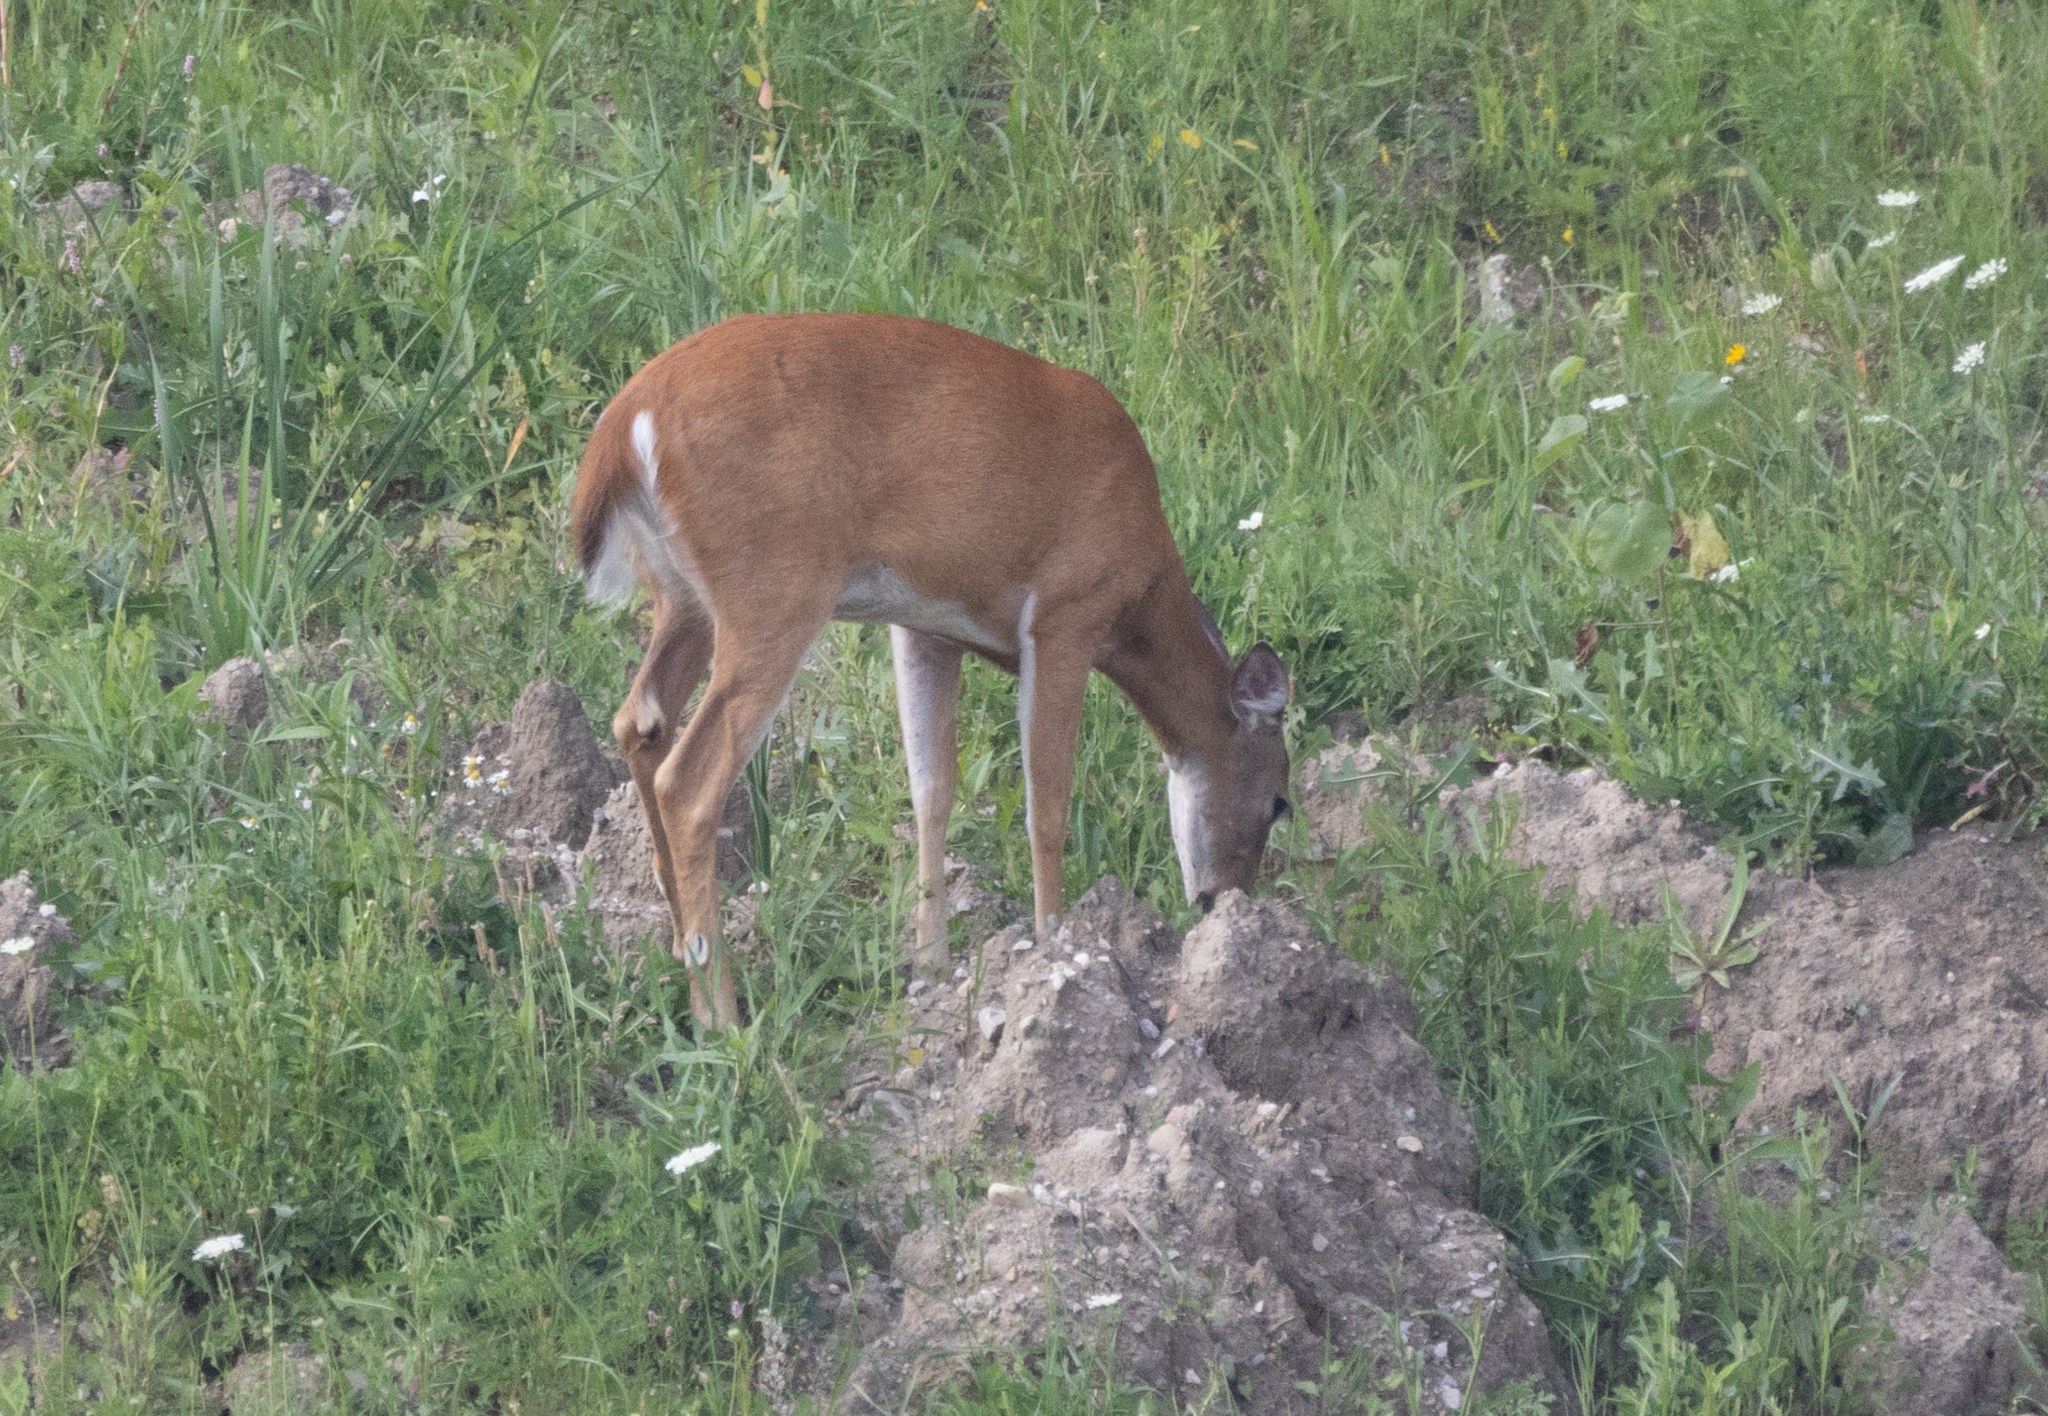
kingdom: Animalia
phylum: Chordata
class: Mammalia
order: Artiodactyla
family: Cervidae
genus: Odocoileus
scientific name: Odocoileus virginianus
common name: White-tailed deer
